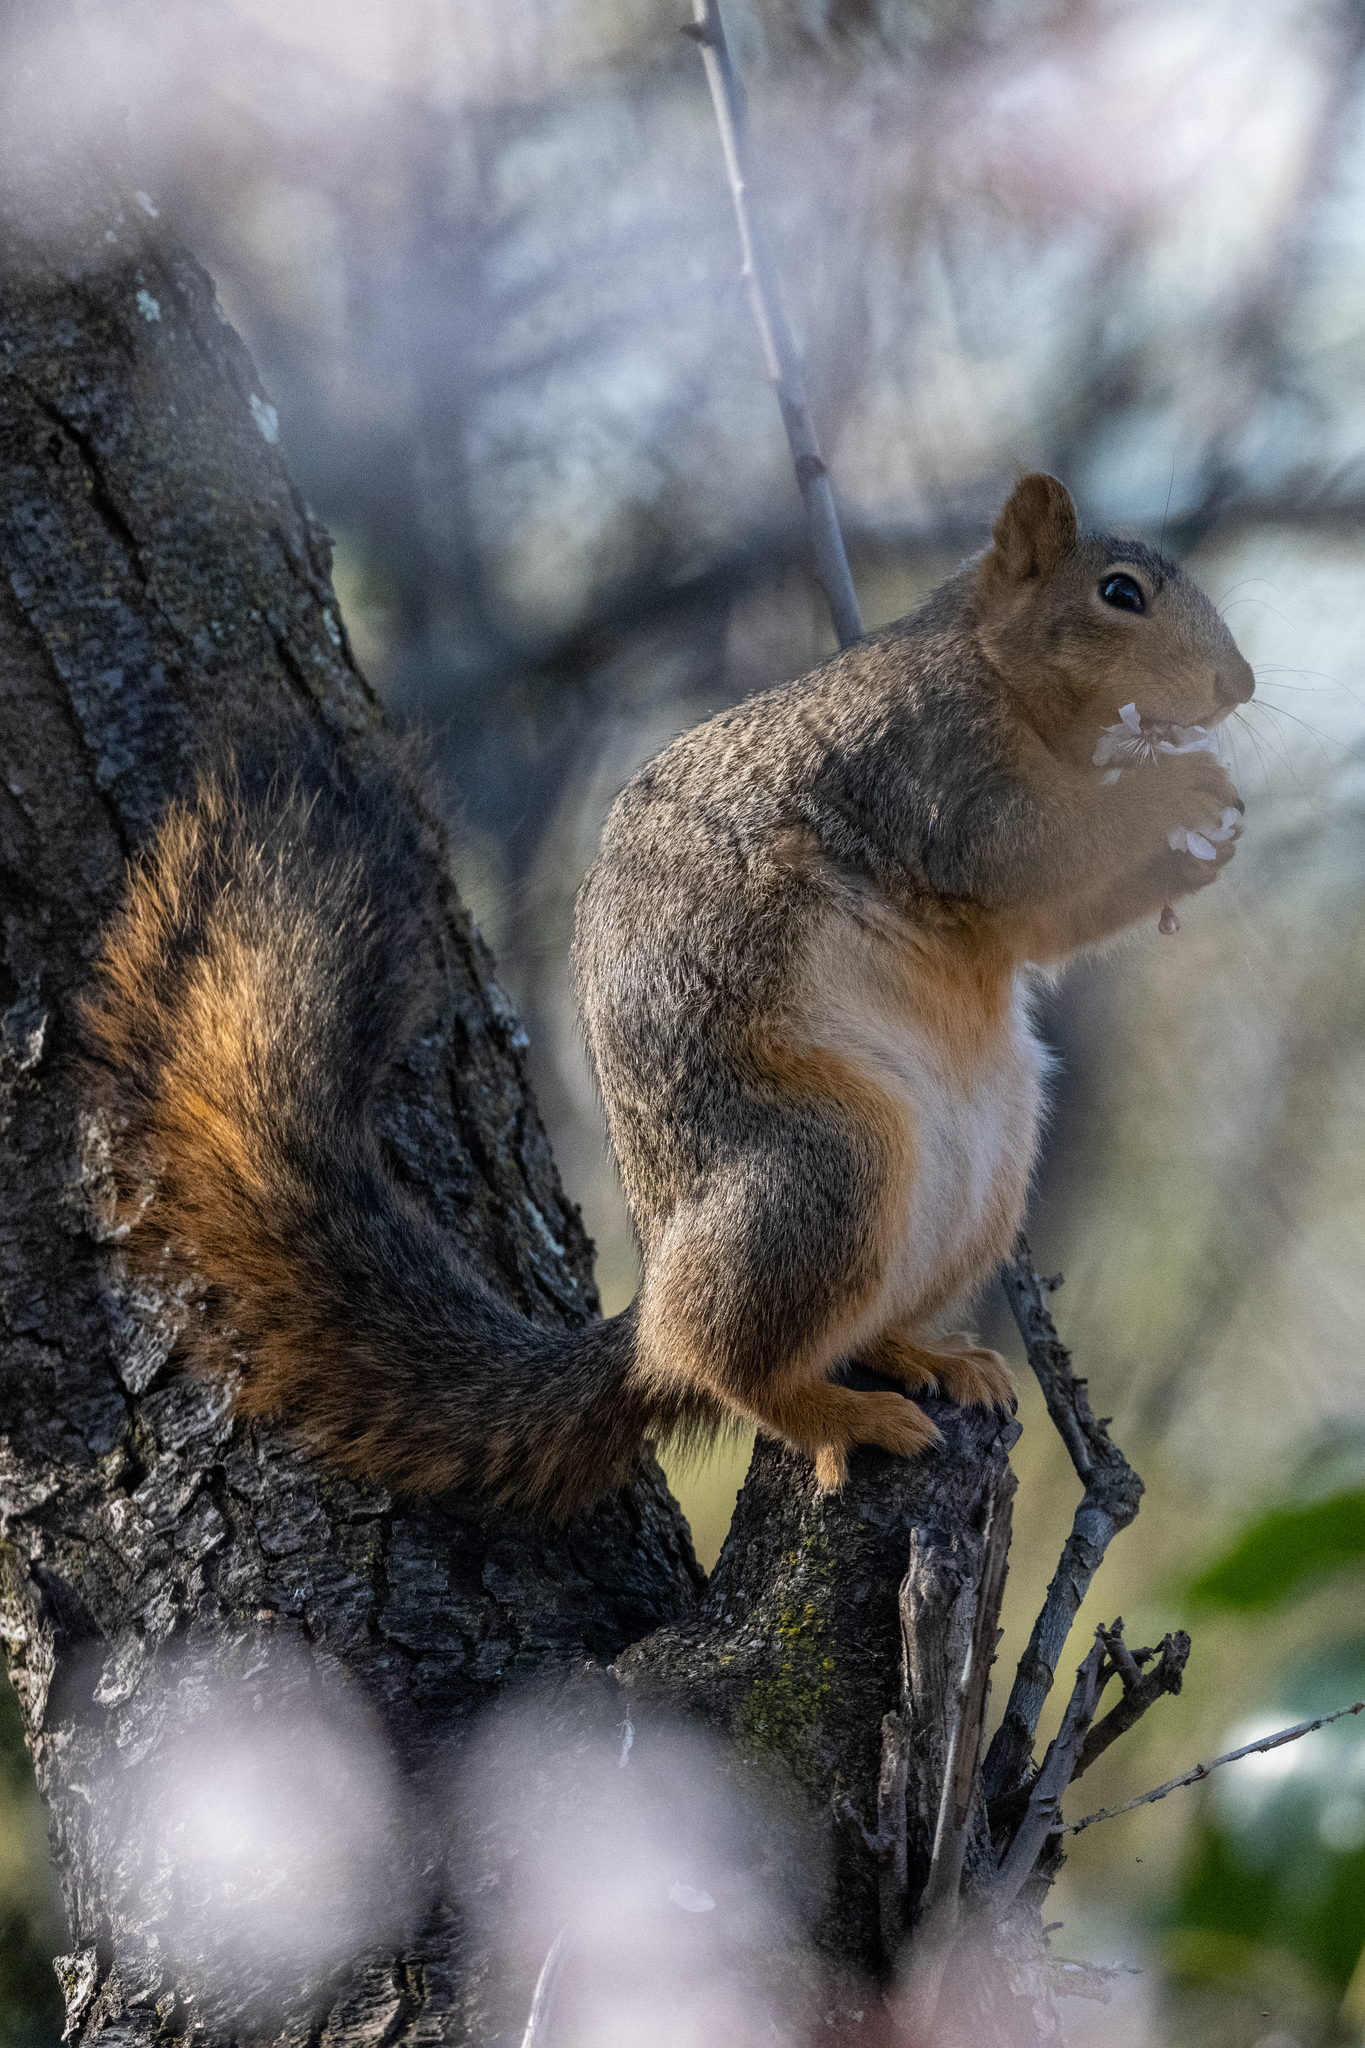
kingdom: Animalia
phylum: Chordata
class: Mammalia
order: Rodentia
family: Sciuridae
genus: Sciurus
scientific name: Sciurus niger
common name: Fox squirrel
